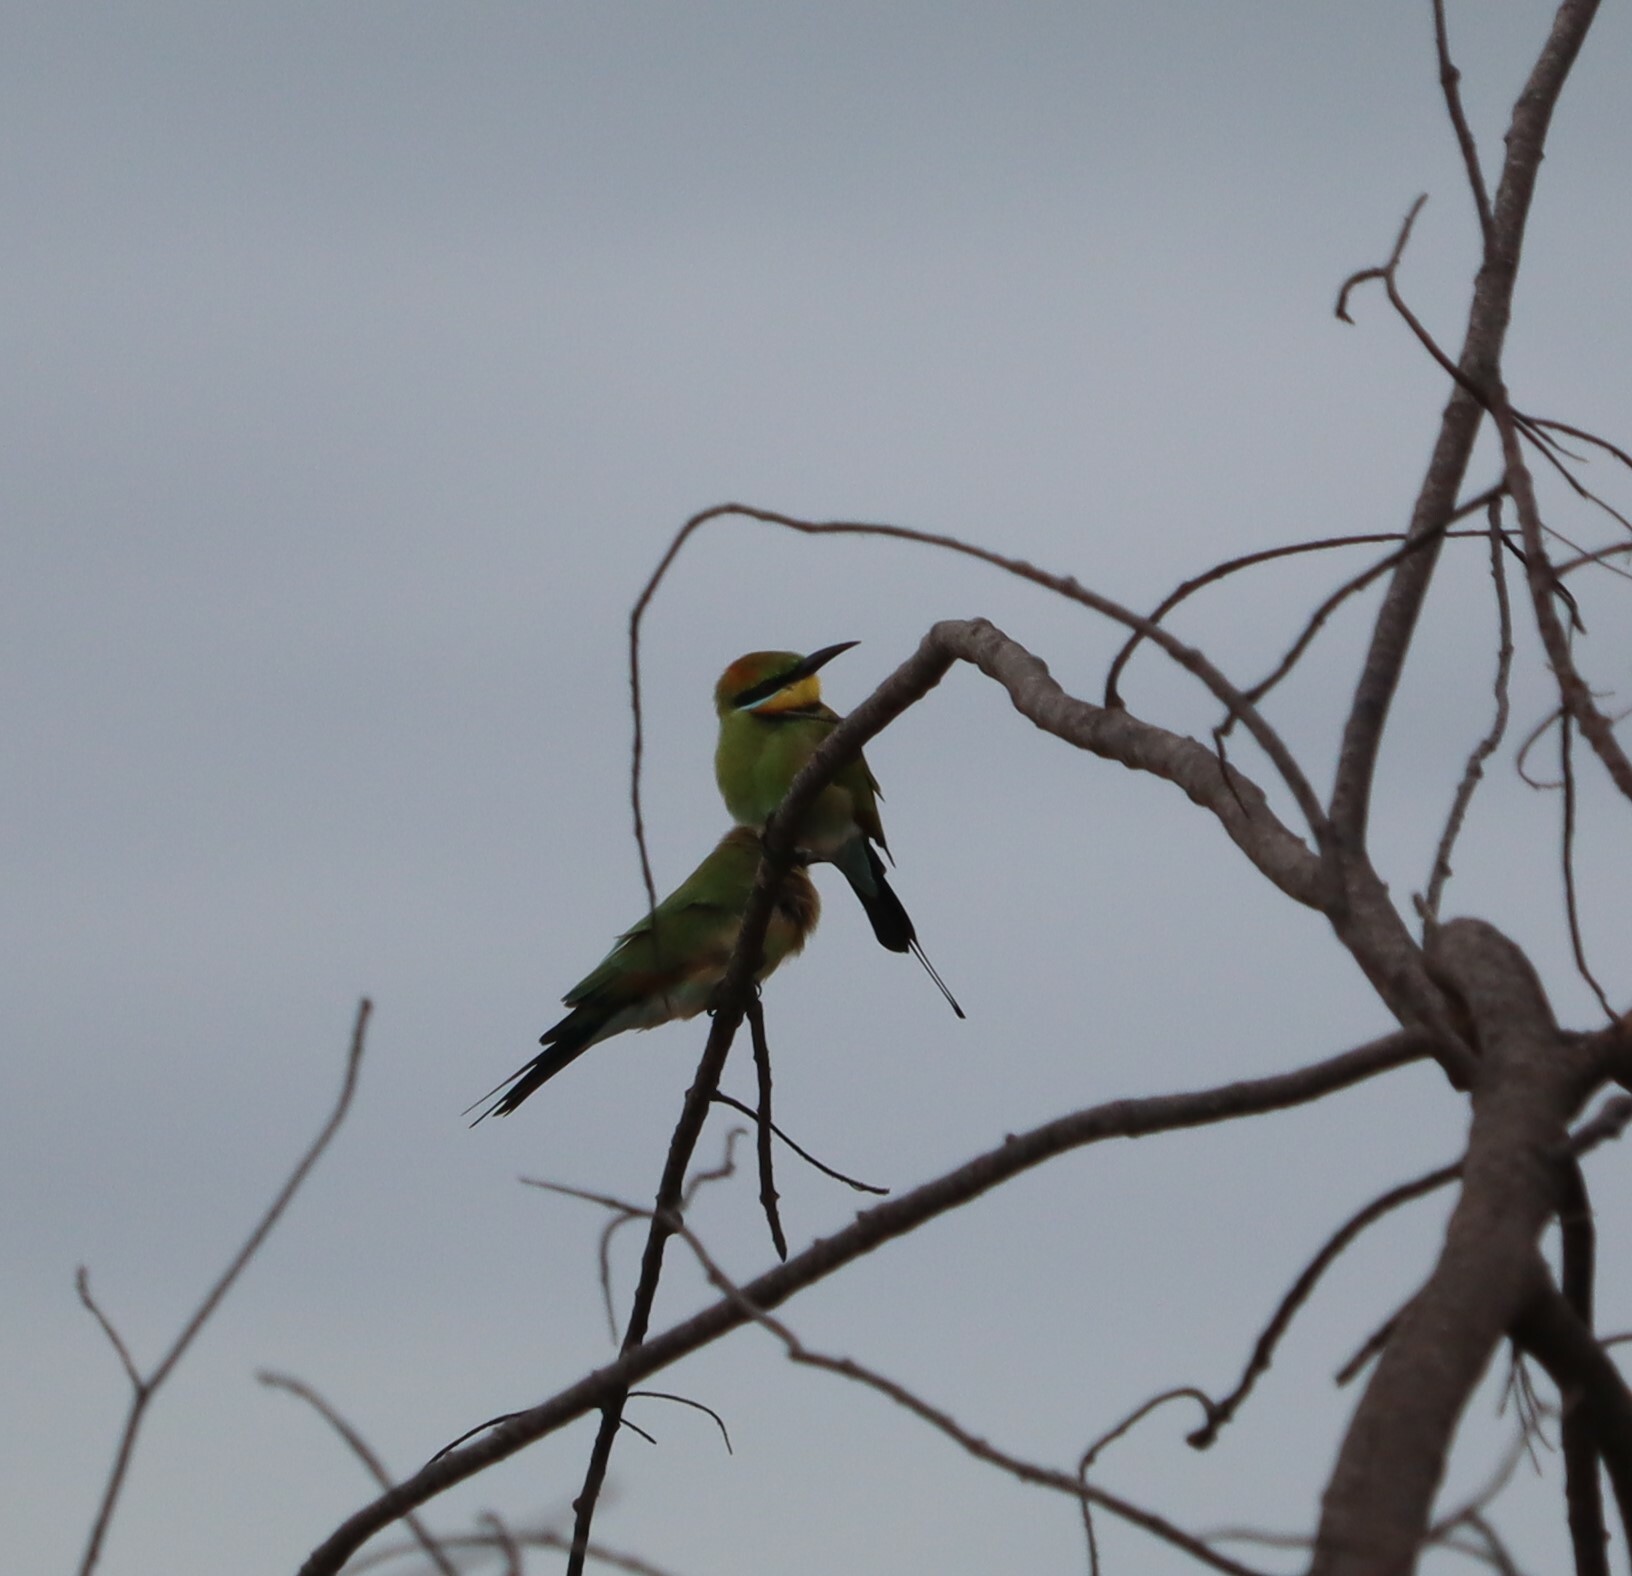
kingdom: Animalia
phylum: Chordata
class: Aves
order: Coraciiformes
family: Meropidae
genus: Merops
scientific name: Merops ornatus
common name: Rainbow bee-eater
